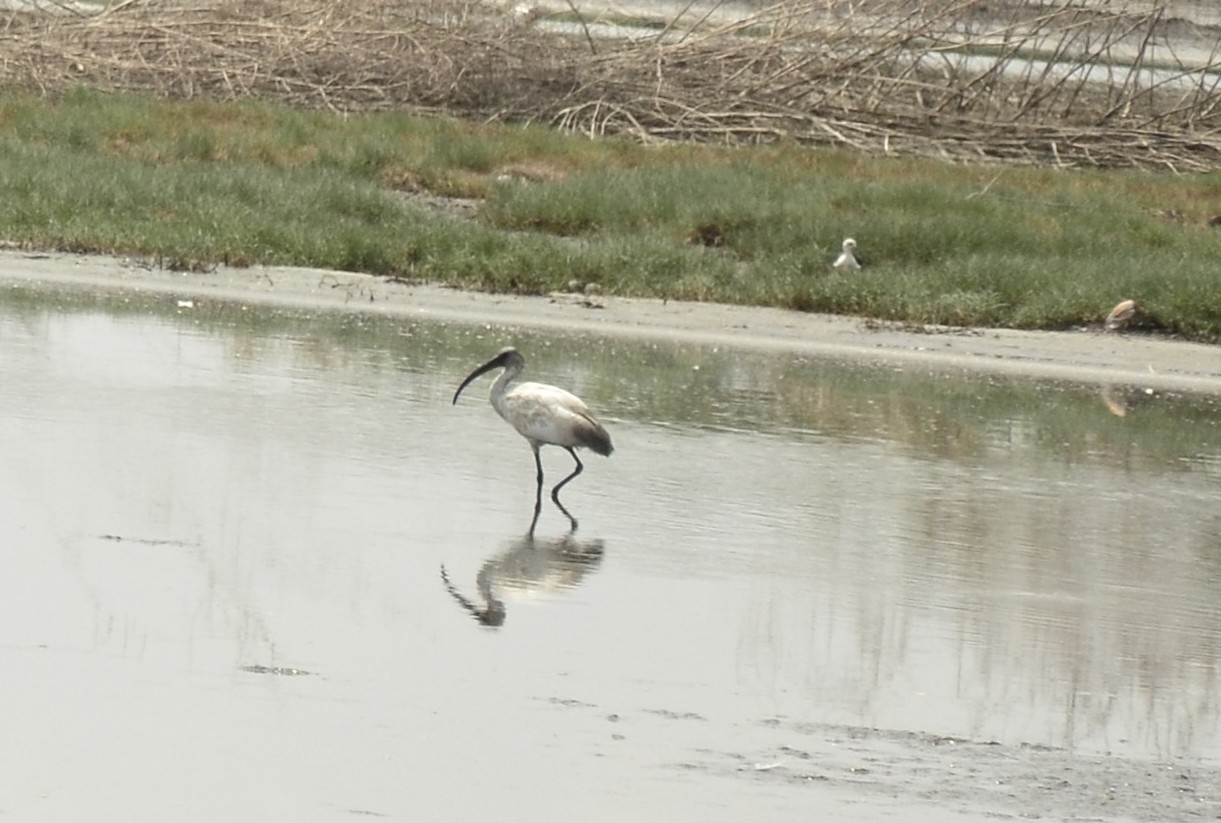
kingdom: Animalia
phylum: Chordata
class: Aves
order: Pelecaniformes
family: Threskiornithidae
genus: Threskiornis
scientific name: Threskiornis melanocephalus
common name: Black-headed ibis
